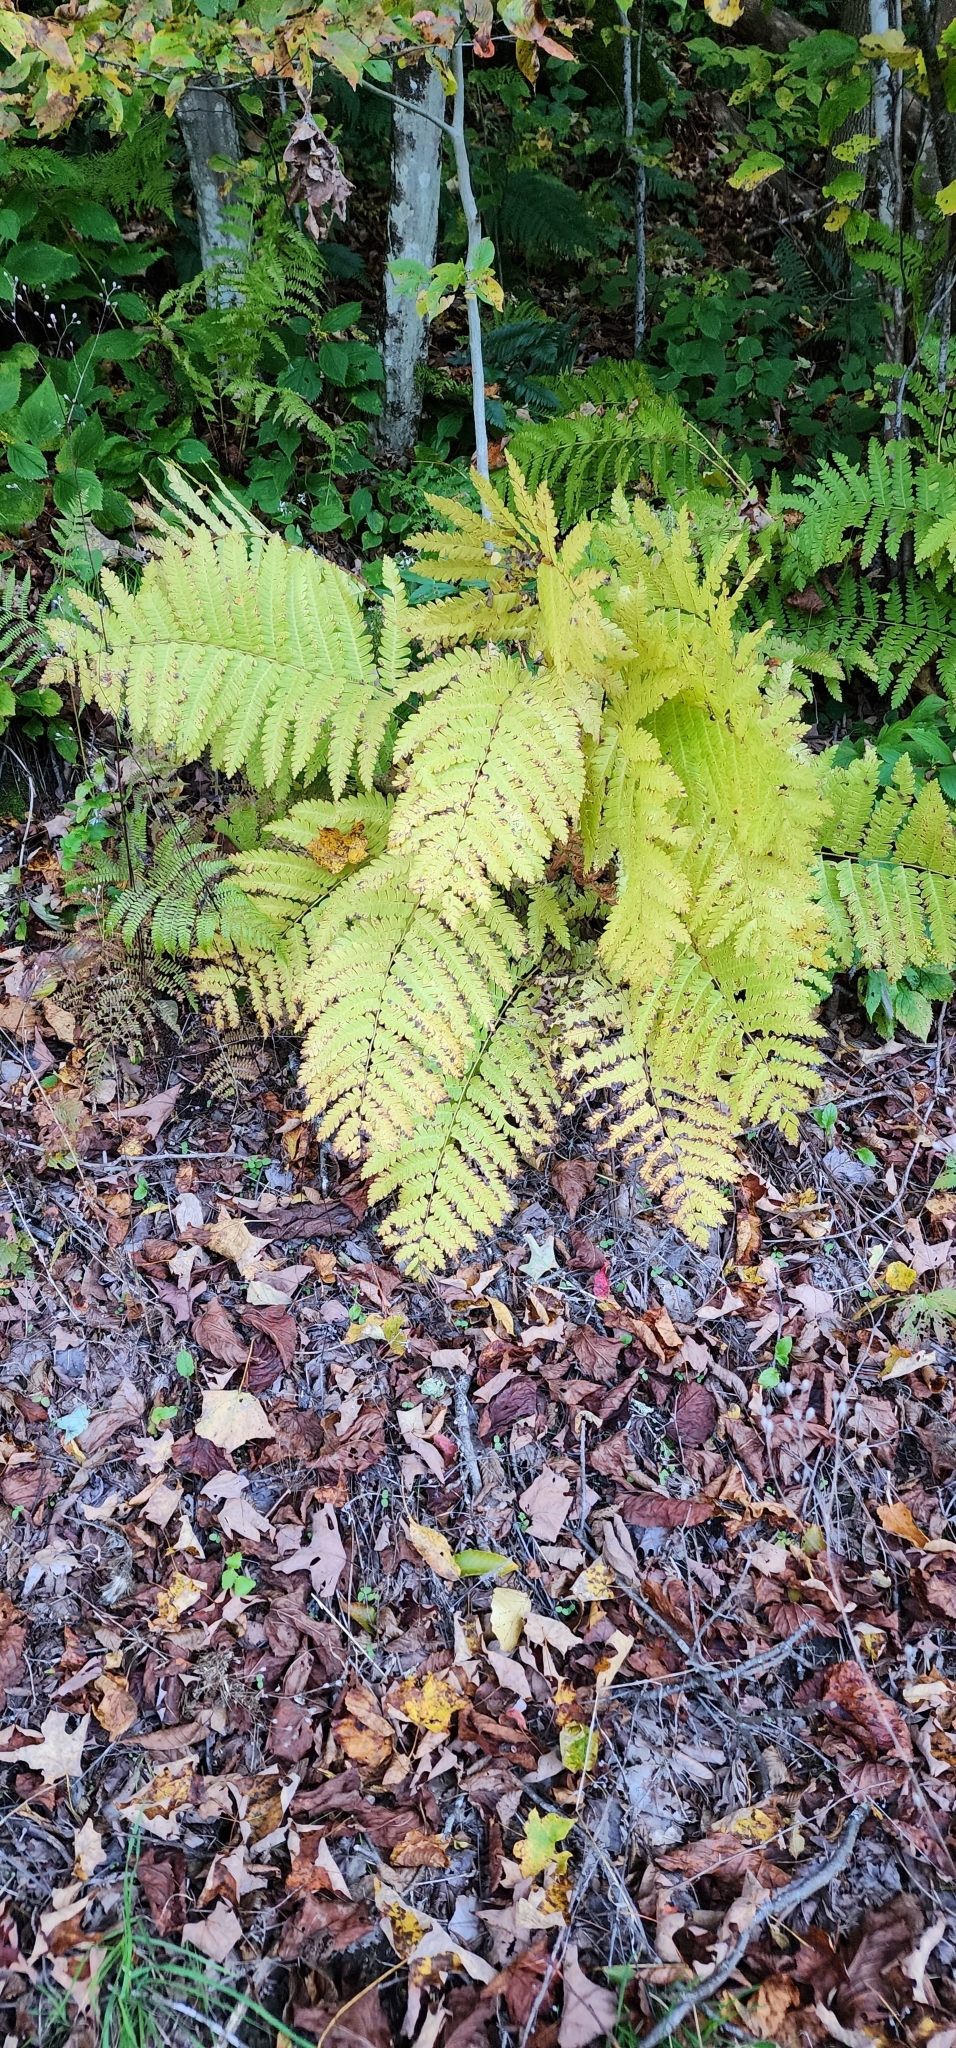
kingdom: Plantae
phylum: Tracheophyta
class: Polypodiopsida
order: Osmundales
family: Osmundaceae
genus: Claytosmunda
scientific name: Claytosmunda claytoniana
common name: Clayton's fern
